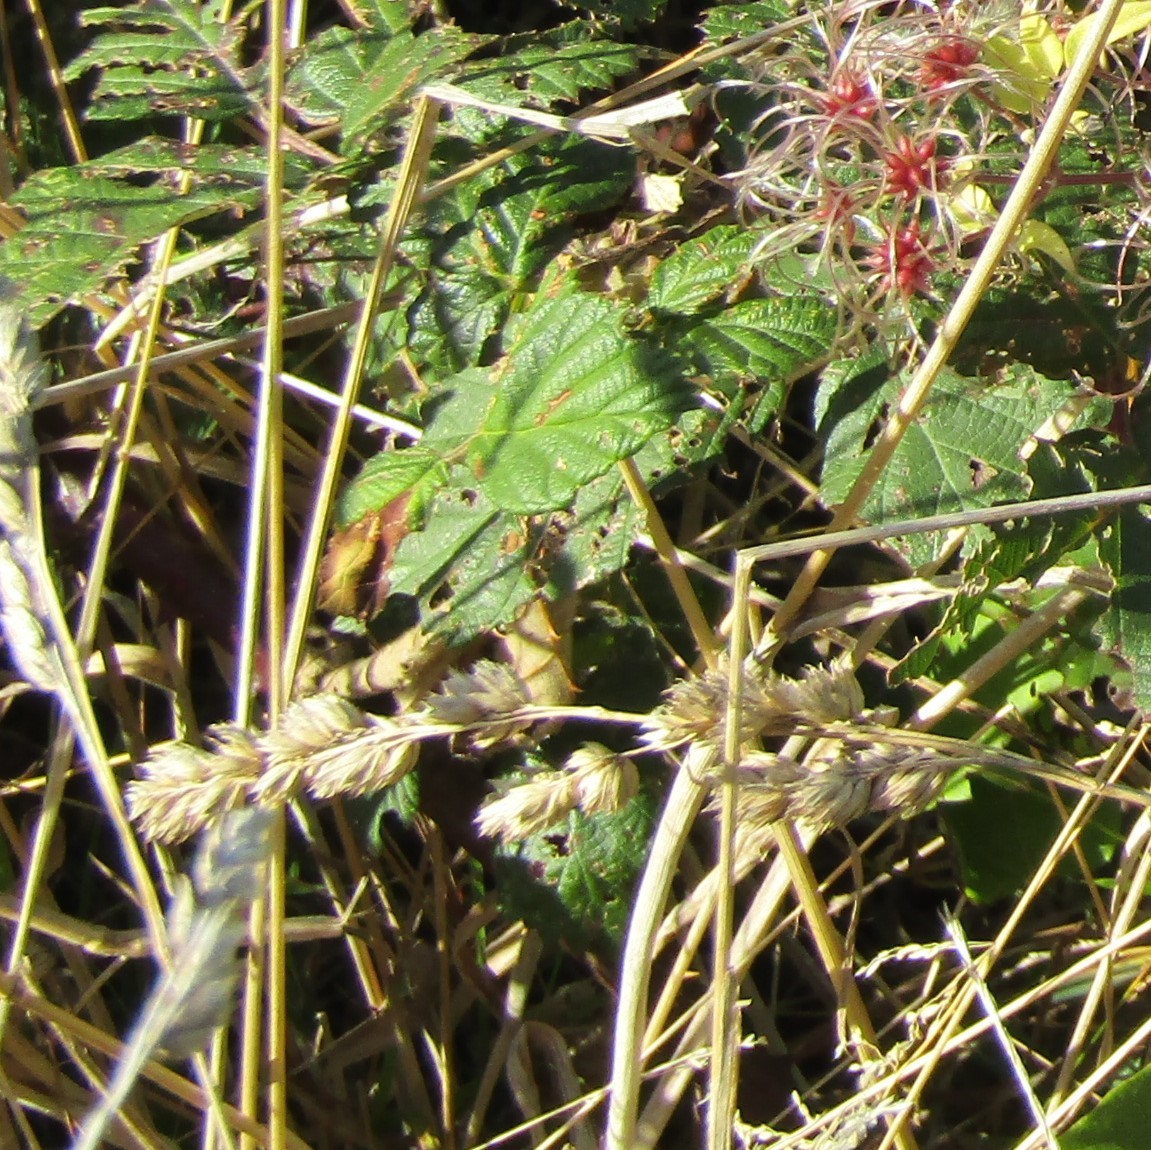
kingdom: Plantae
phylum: Tracheophyta
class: Liliopsida
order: Poales
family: Poaceae
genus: Dactylis
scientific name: Dactylis glomerata
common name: Orchardgrass
